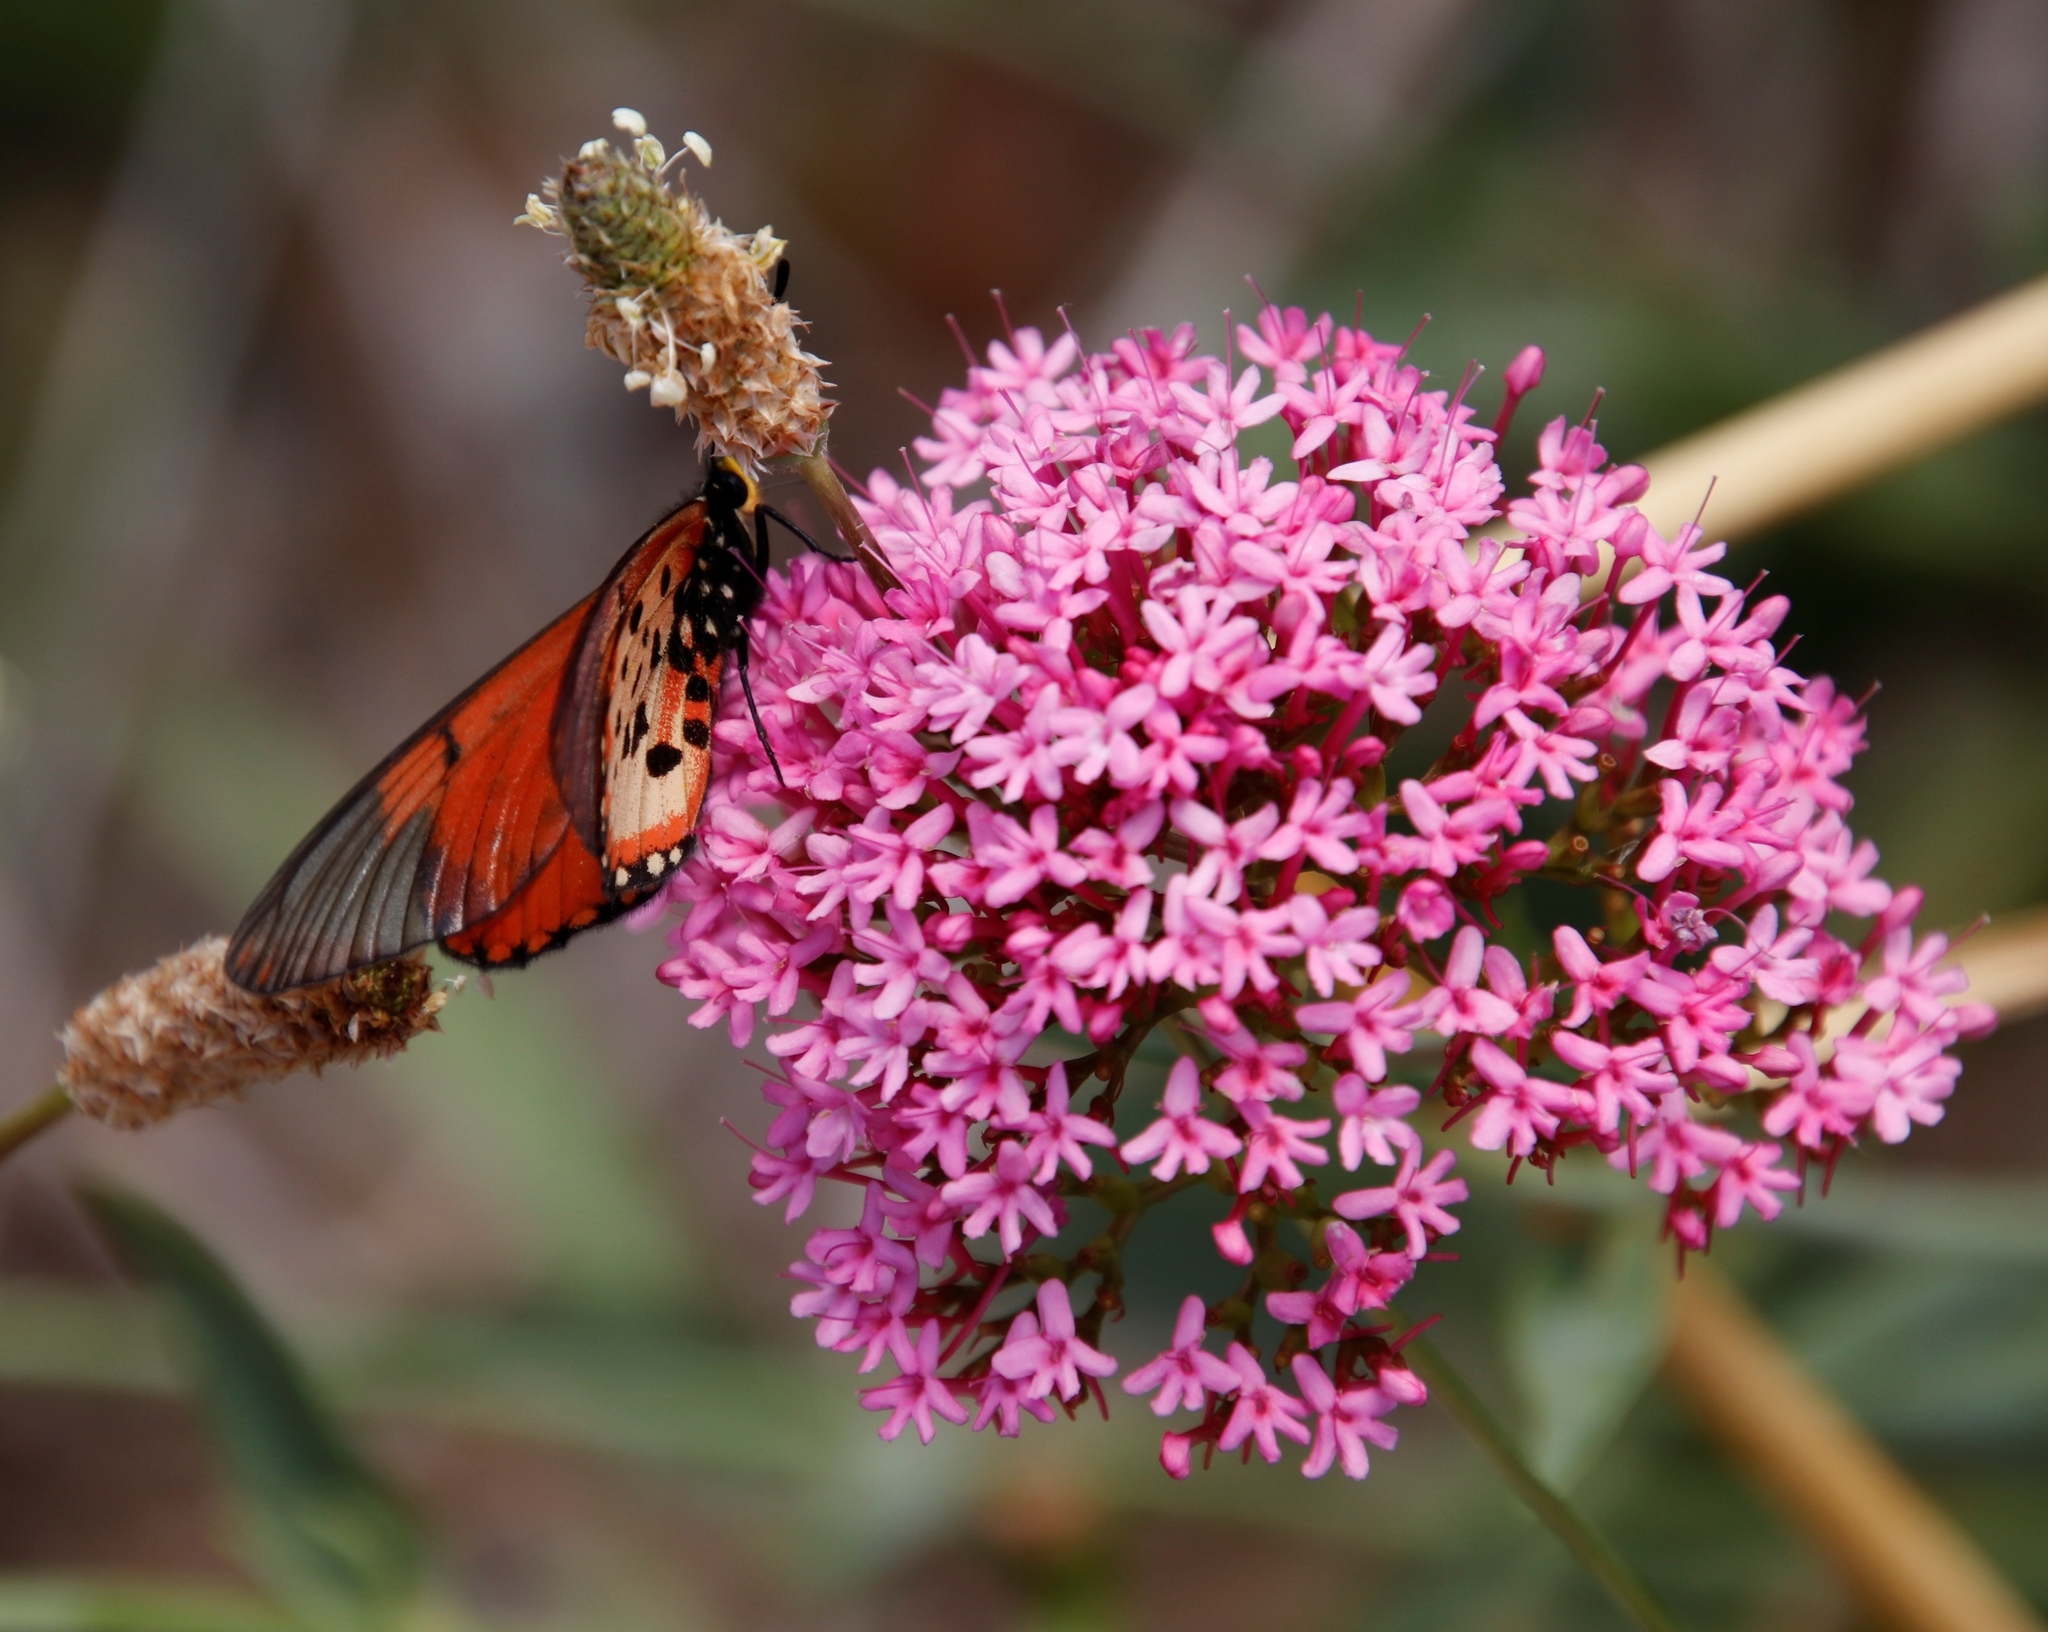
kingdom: Plantae
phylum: Tracheophyta
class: Magnoliopsida
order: Dipsacales
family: Caprifoliaceae
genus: Centranthus
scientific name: Centranthus ruber
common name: Red valerian
